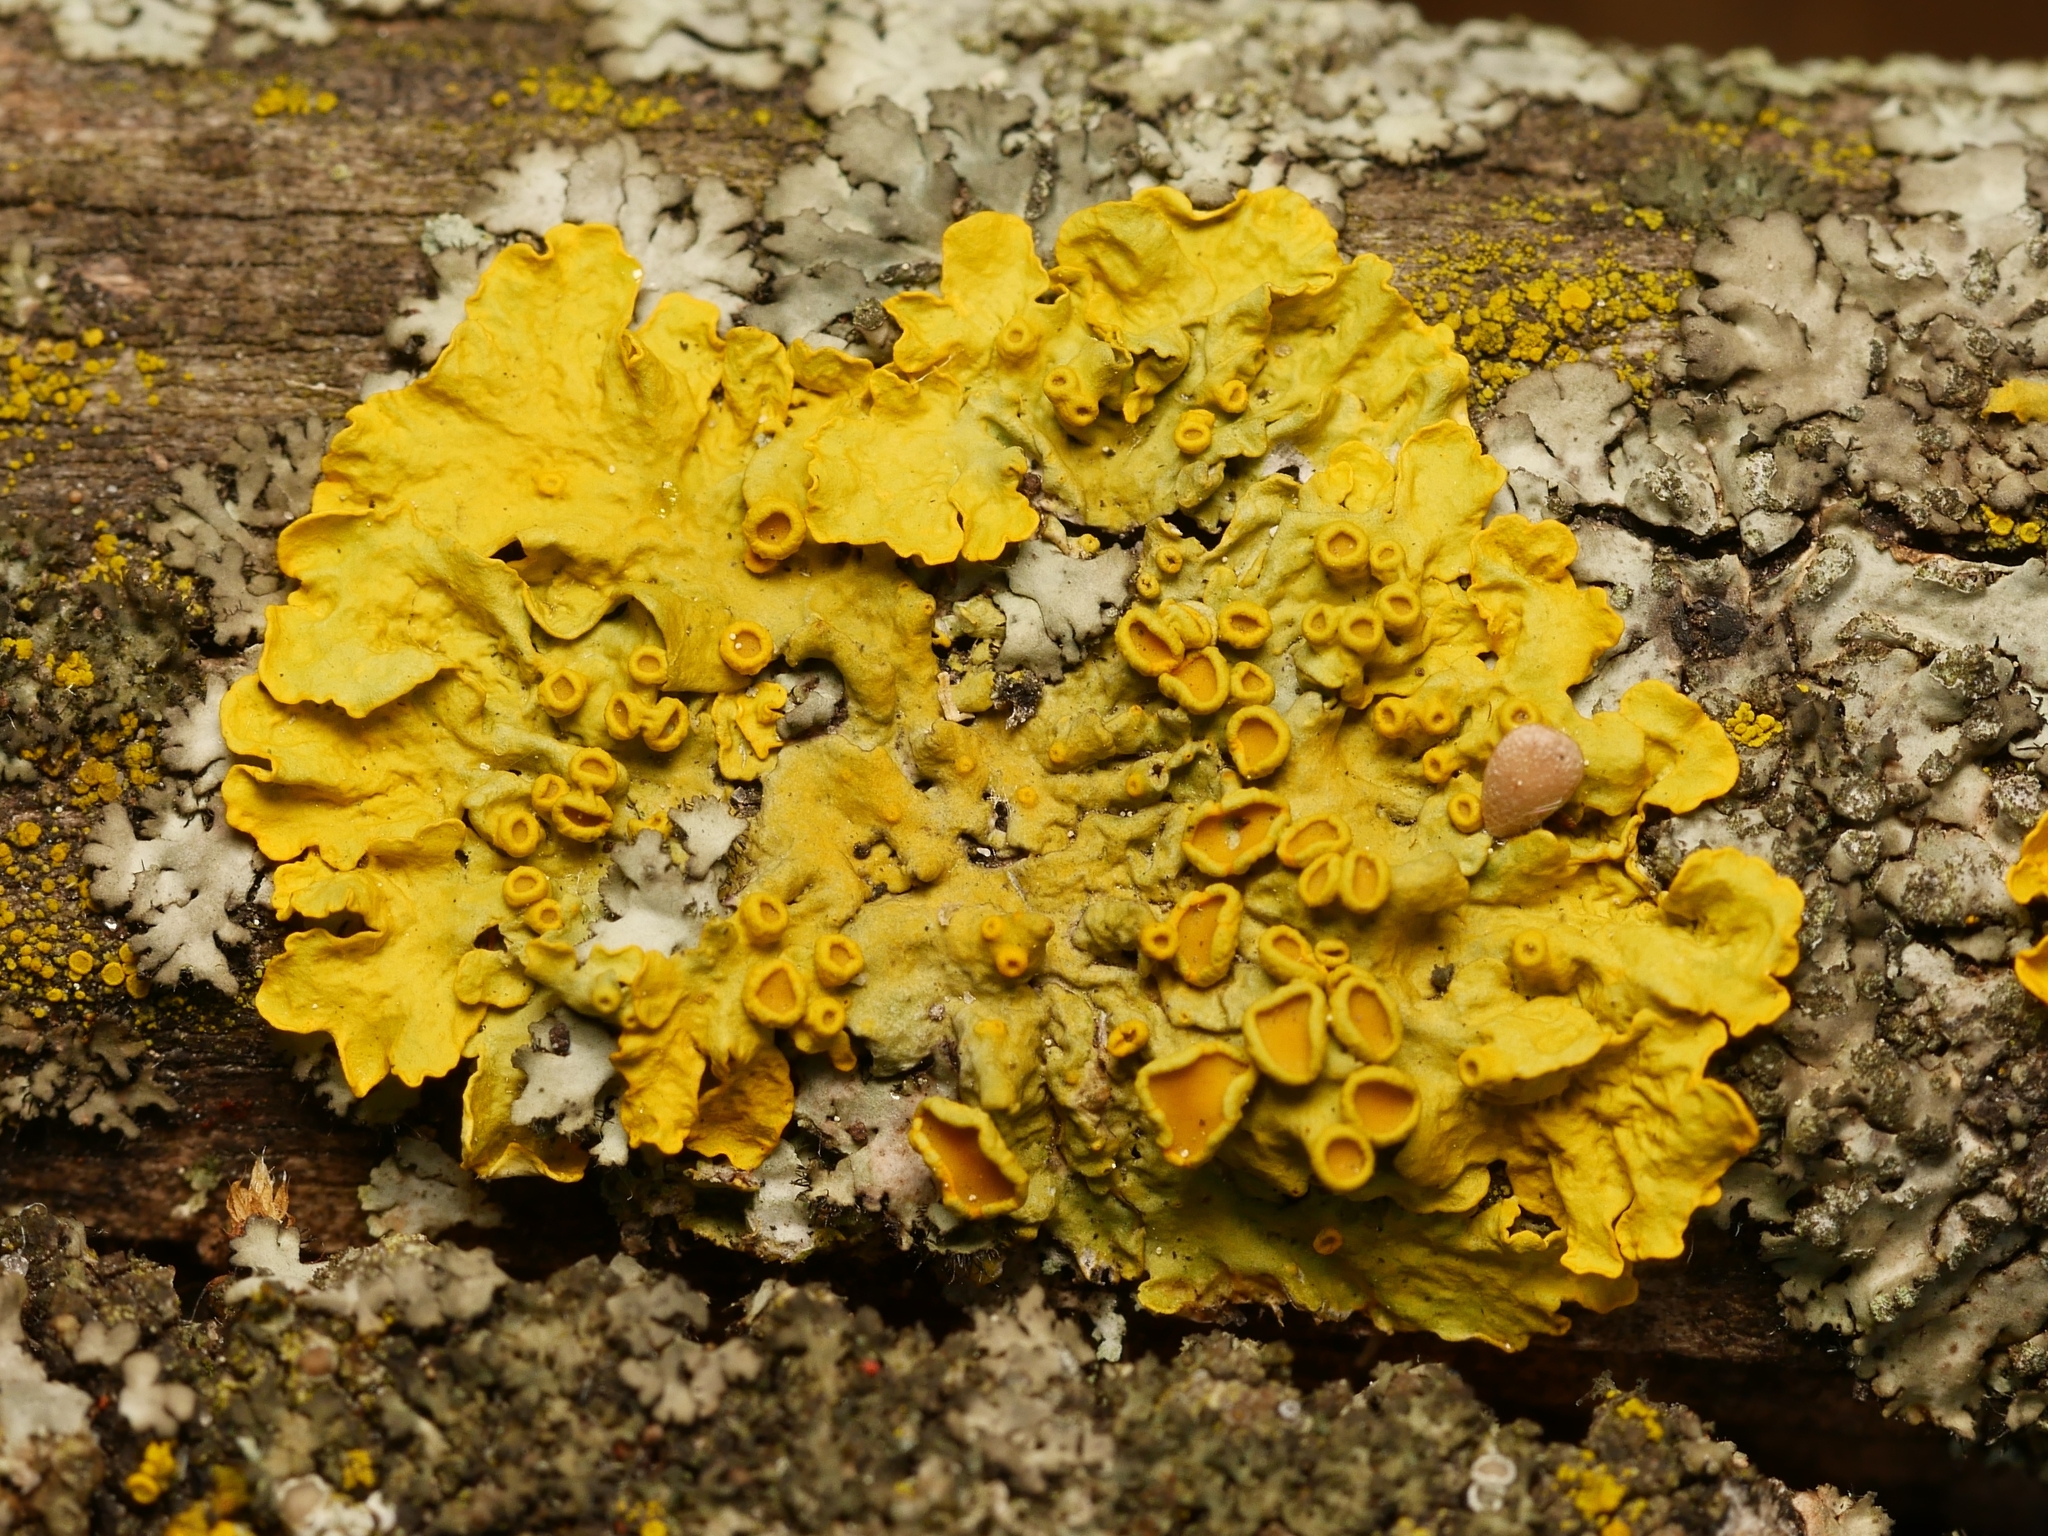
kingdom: Fungi
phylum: Ascomycota
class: Lecanoromycetes
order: Teloschistales
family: Teloschistaceae
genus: Xanthoria
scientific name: Xanthoria parietina
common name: Common orange lichen
